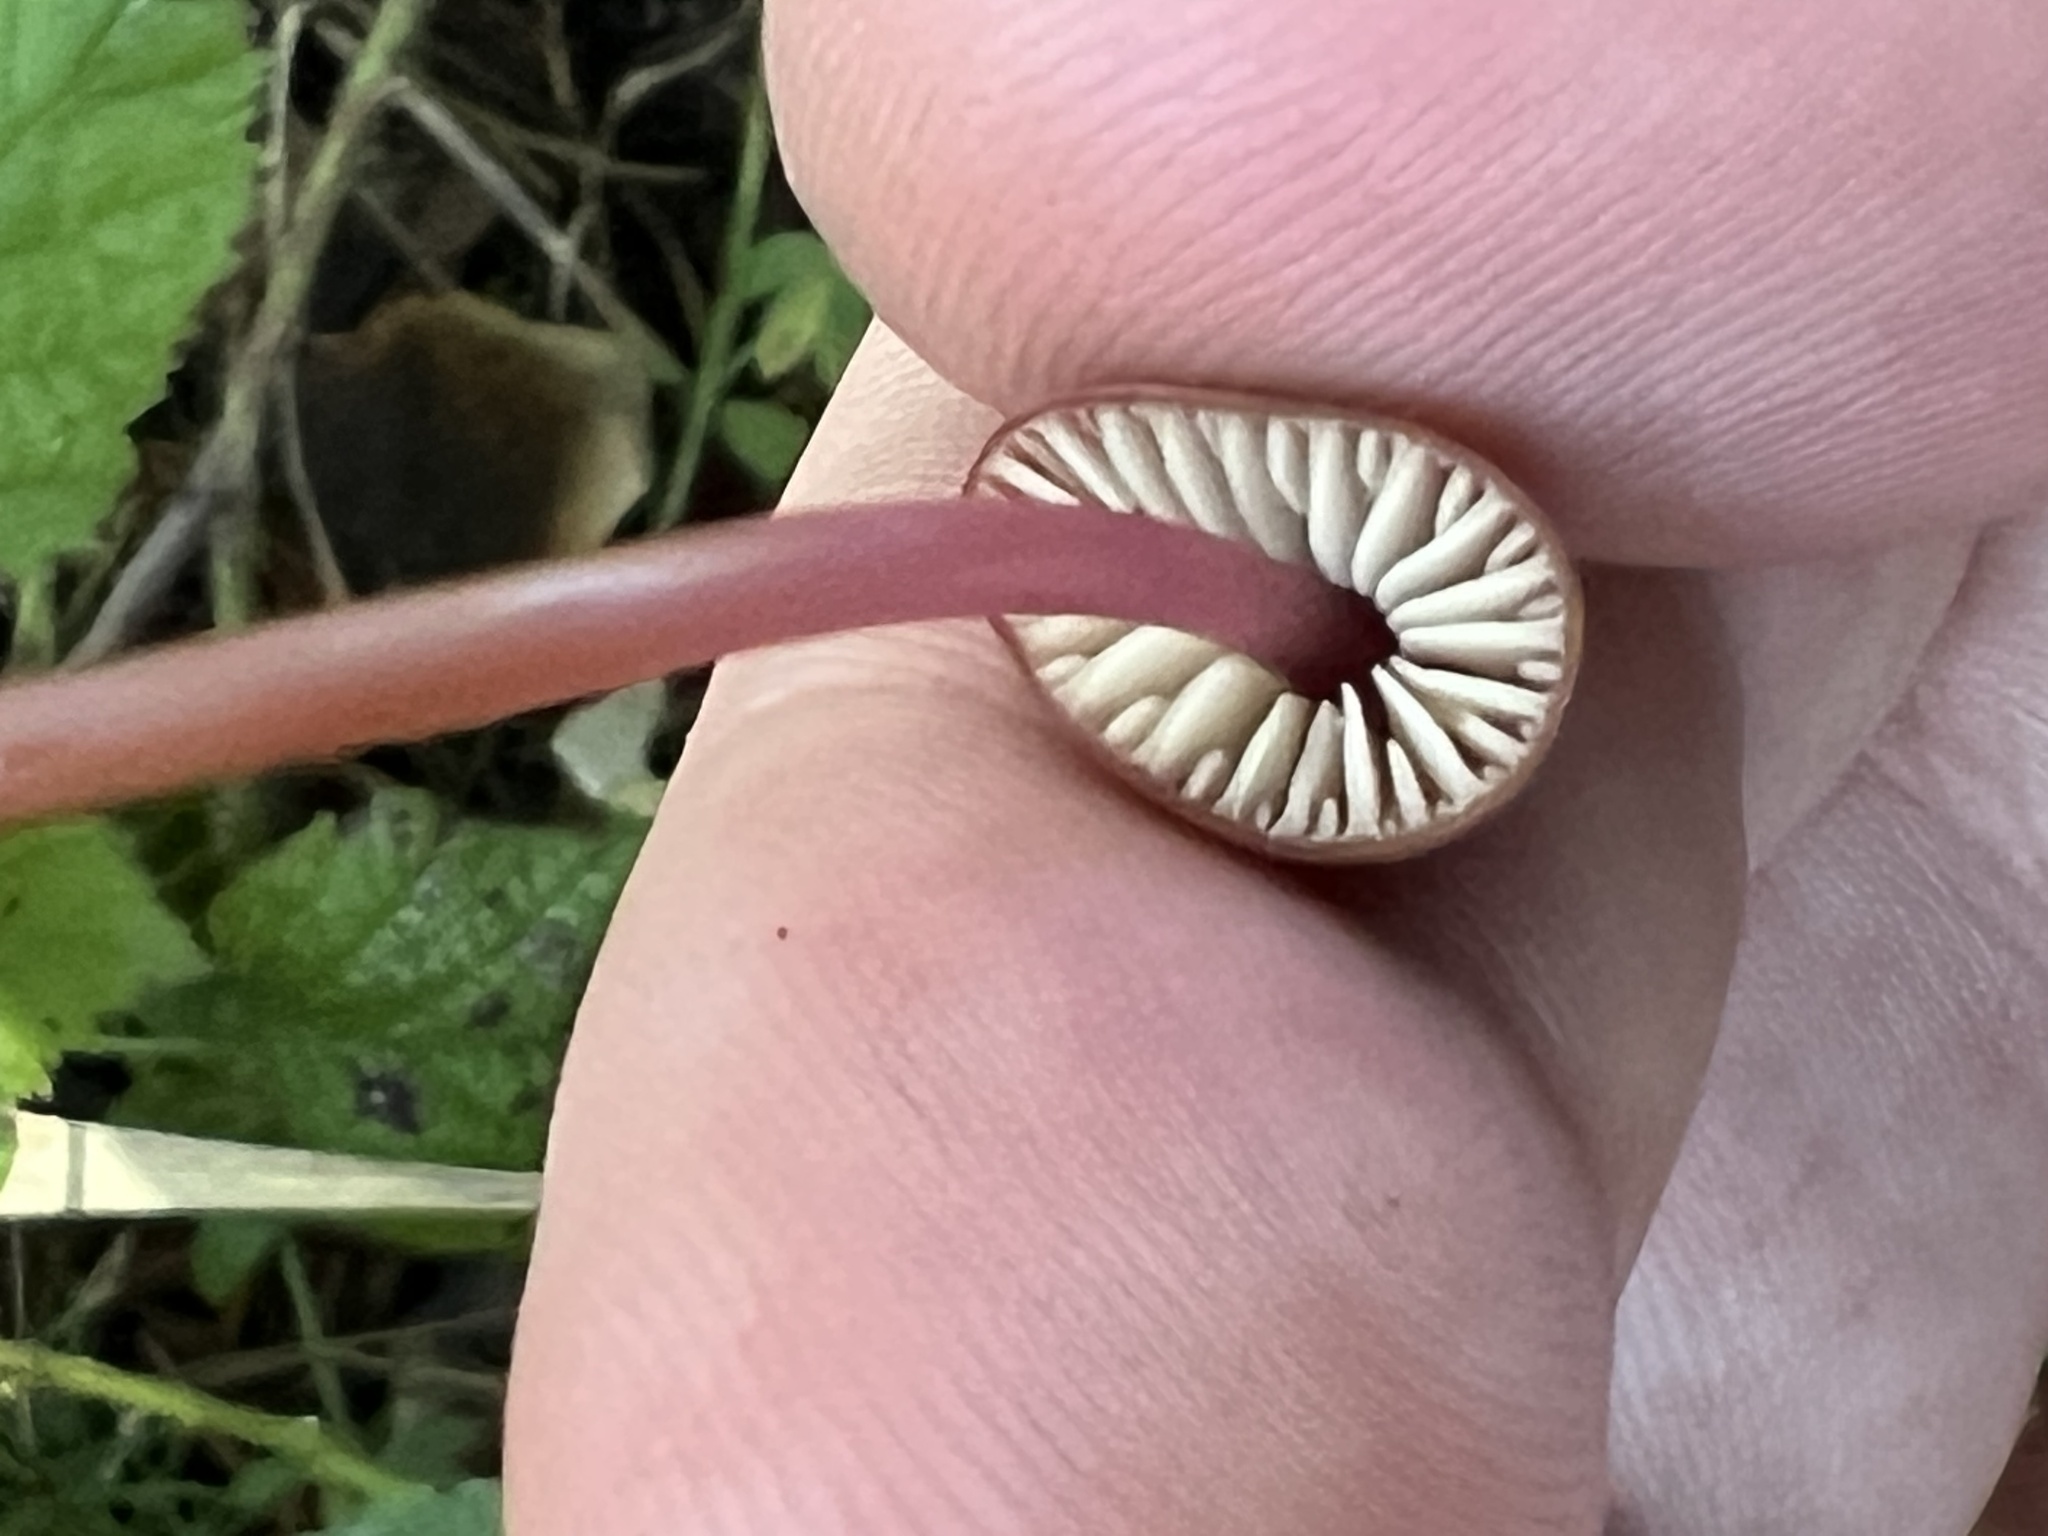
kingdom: Fungi
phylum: Basidiomycota
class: Agaricomycetes
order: Agaricales
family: Marasmiaceae
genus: Marasmius
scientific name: Marasmius plicatulus
